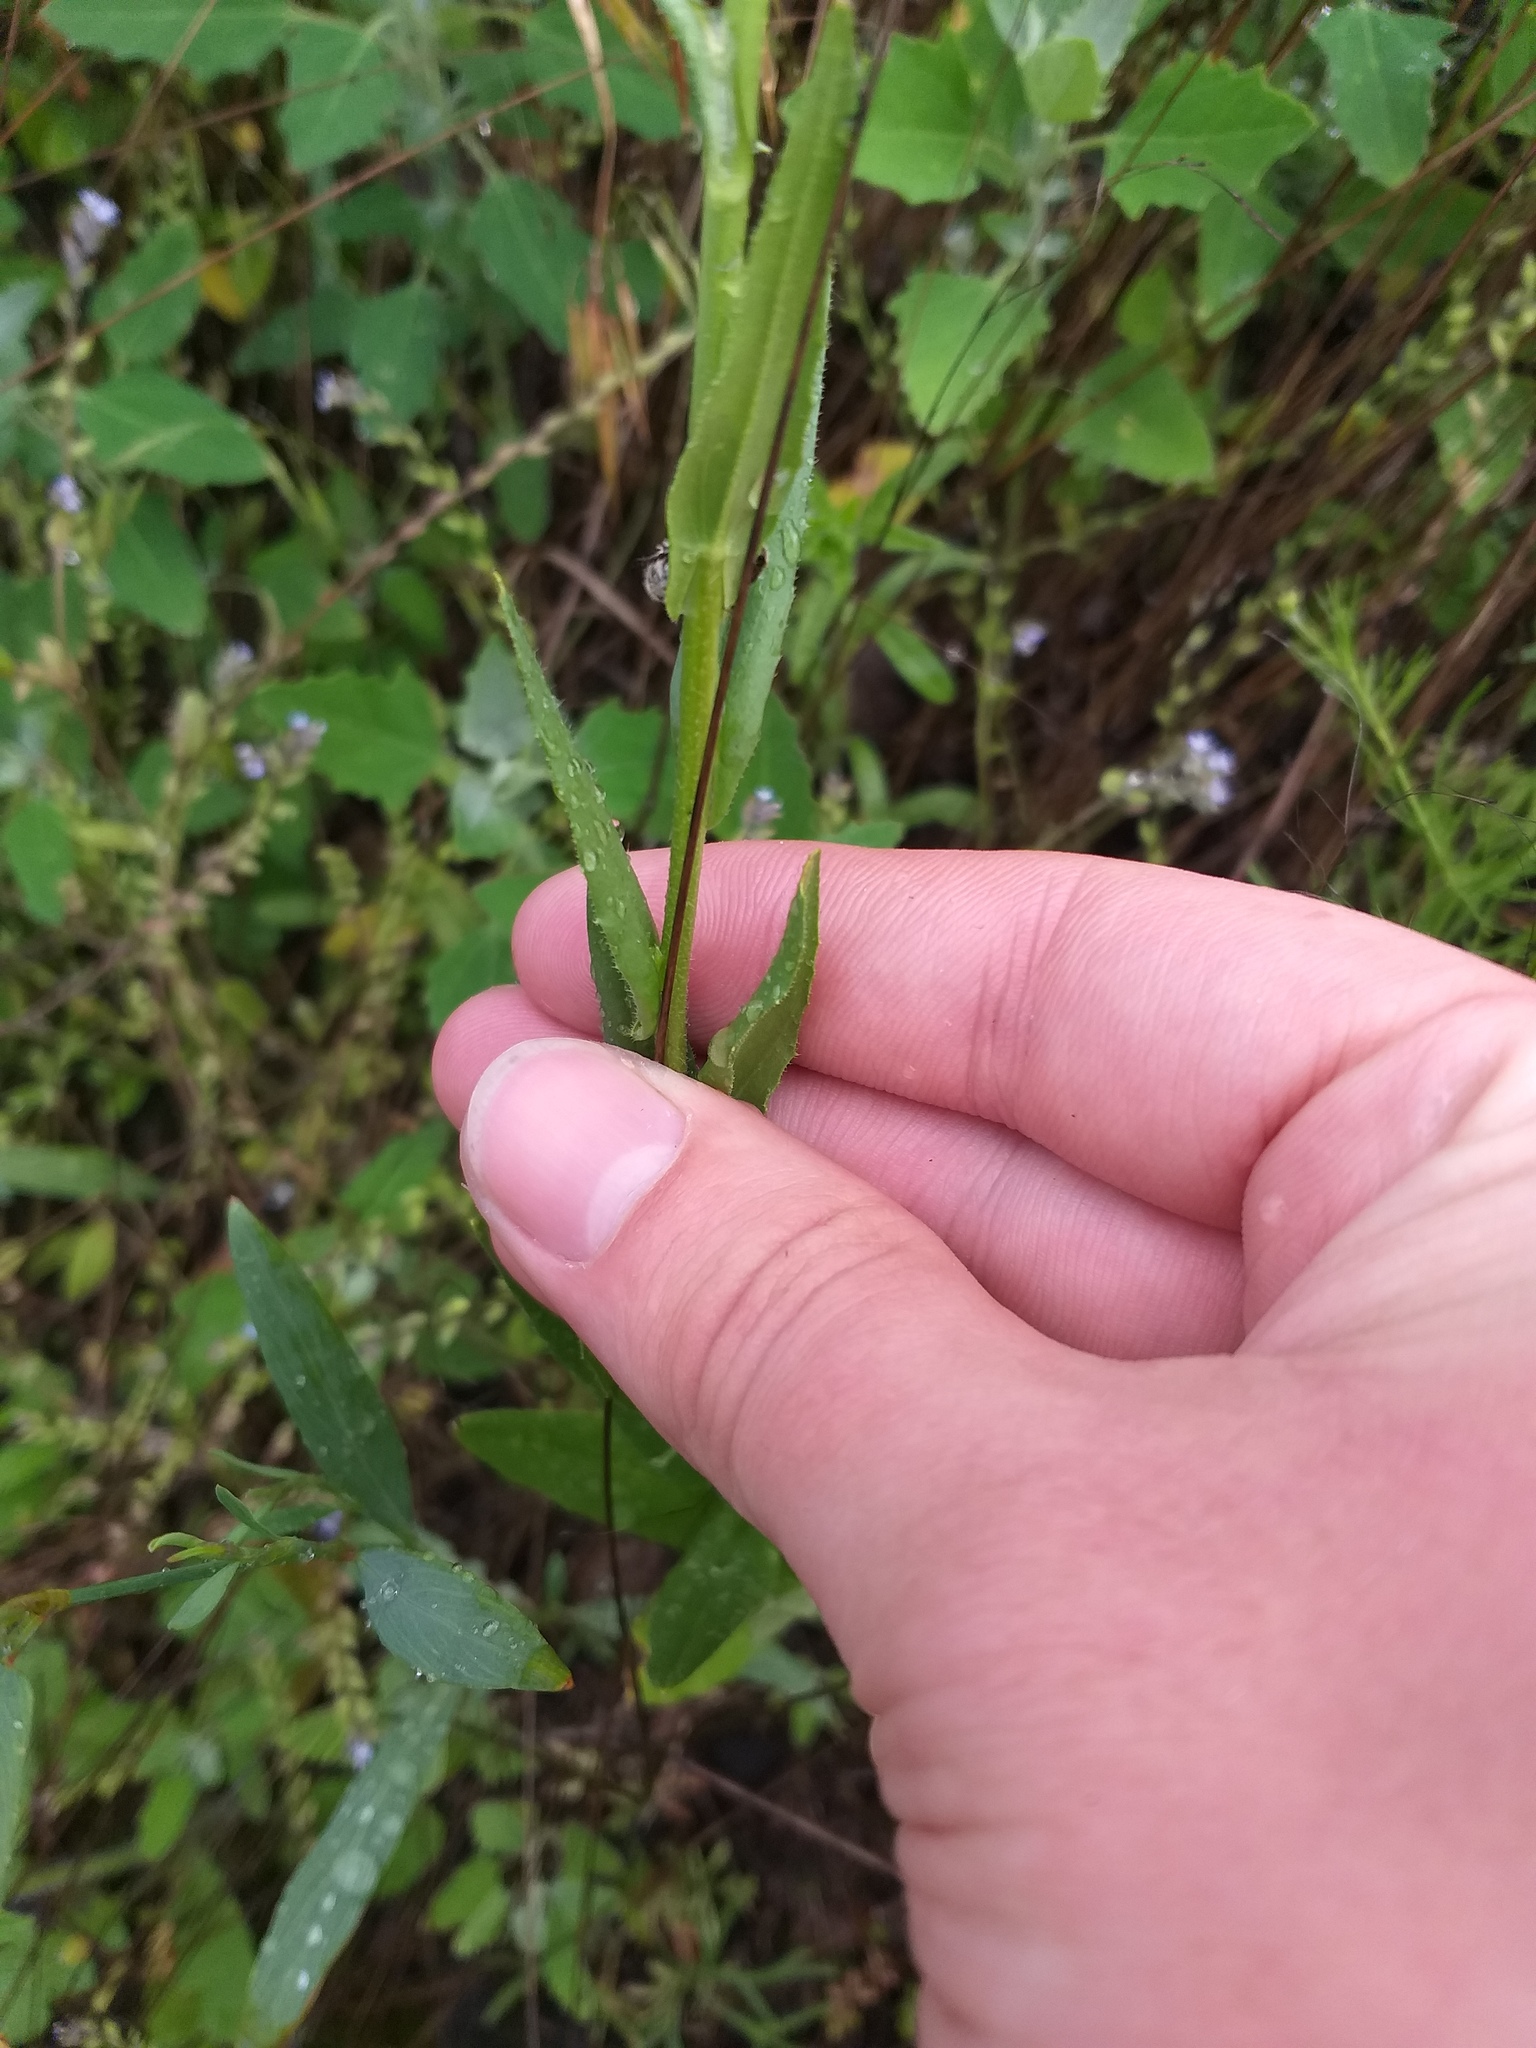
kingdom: Plantae
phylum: Tracheophyta
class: Magnoliopsida
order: Brassicales
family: Brassicaceae
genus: Camelina
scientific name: Camelina sativa
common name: Gold-of-pleasure
